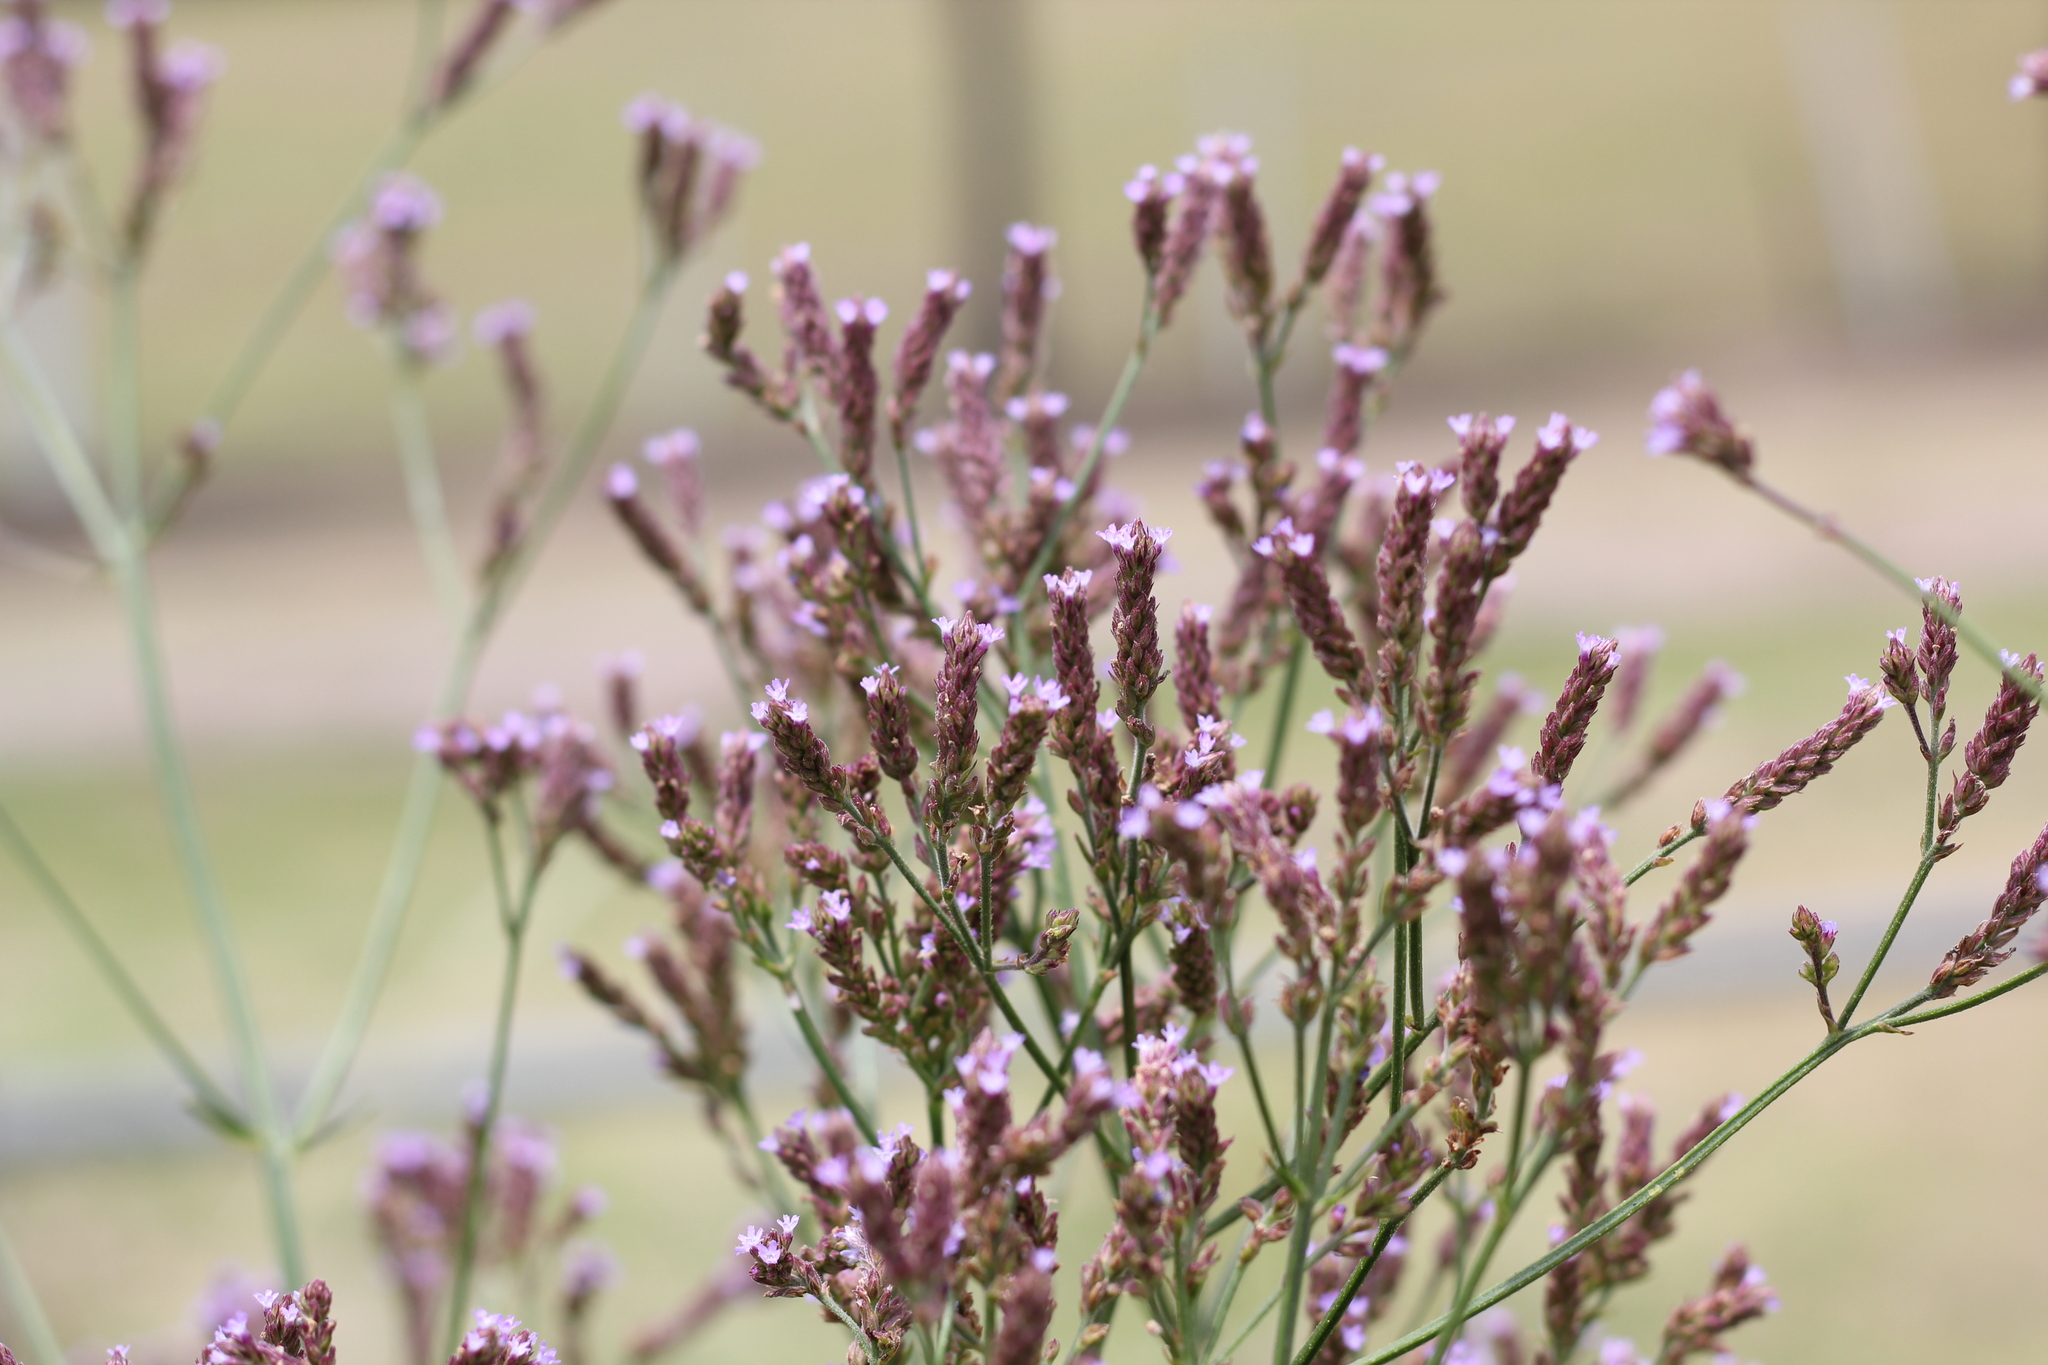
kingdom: Plantae
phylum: Tracheophyta
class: Magnoliopsida
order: Lamiales
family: Verbenaceae
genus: Verbena
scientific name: Verbena bonariensis
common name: Purpletop vervain
